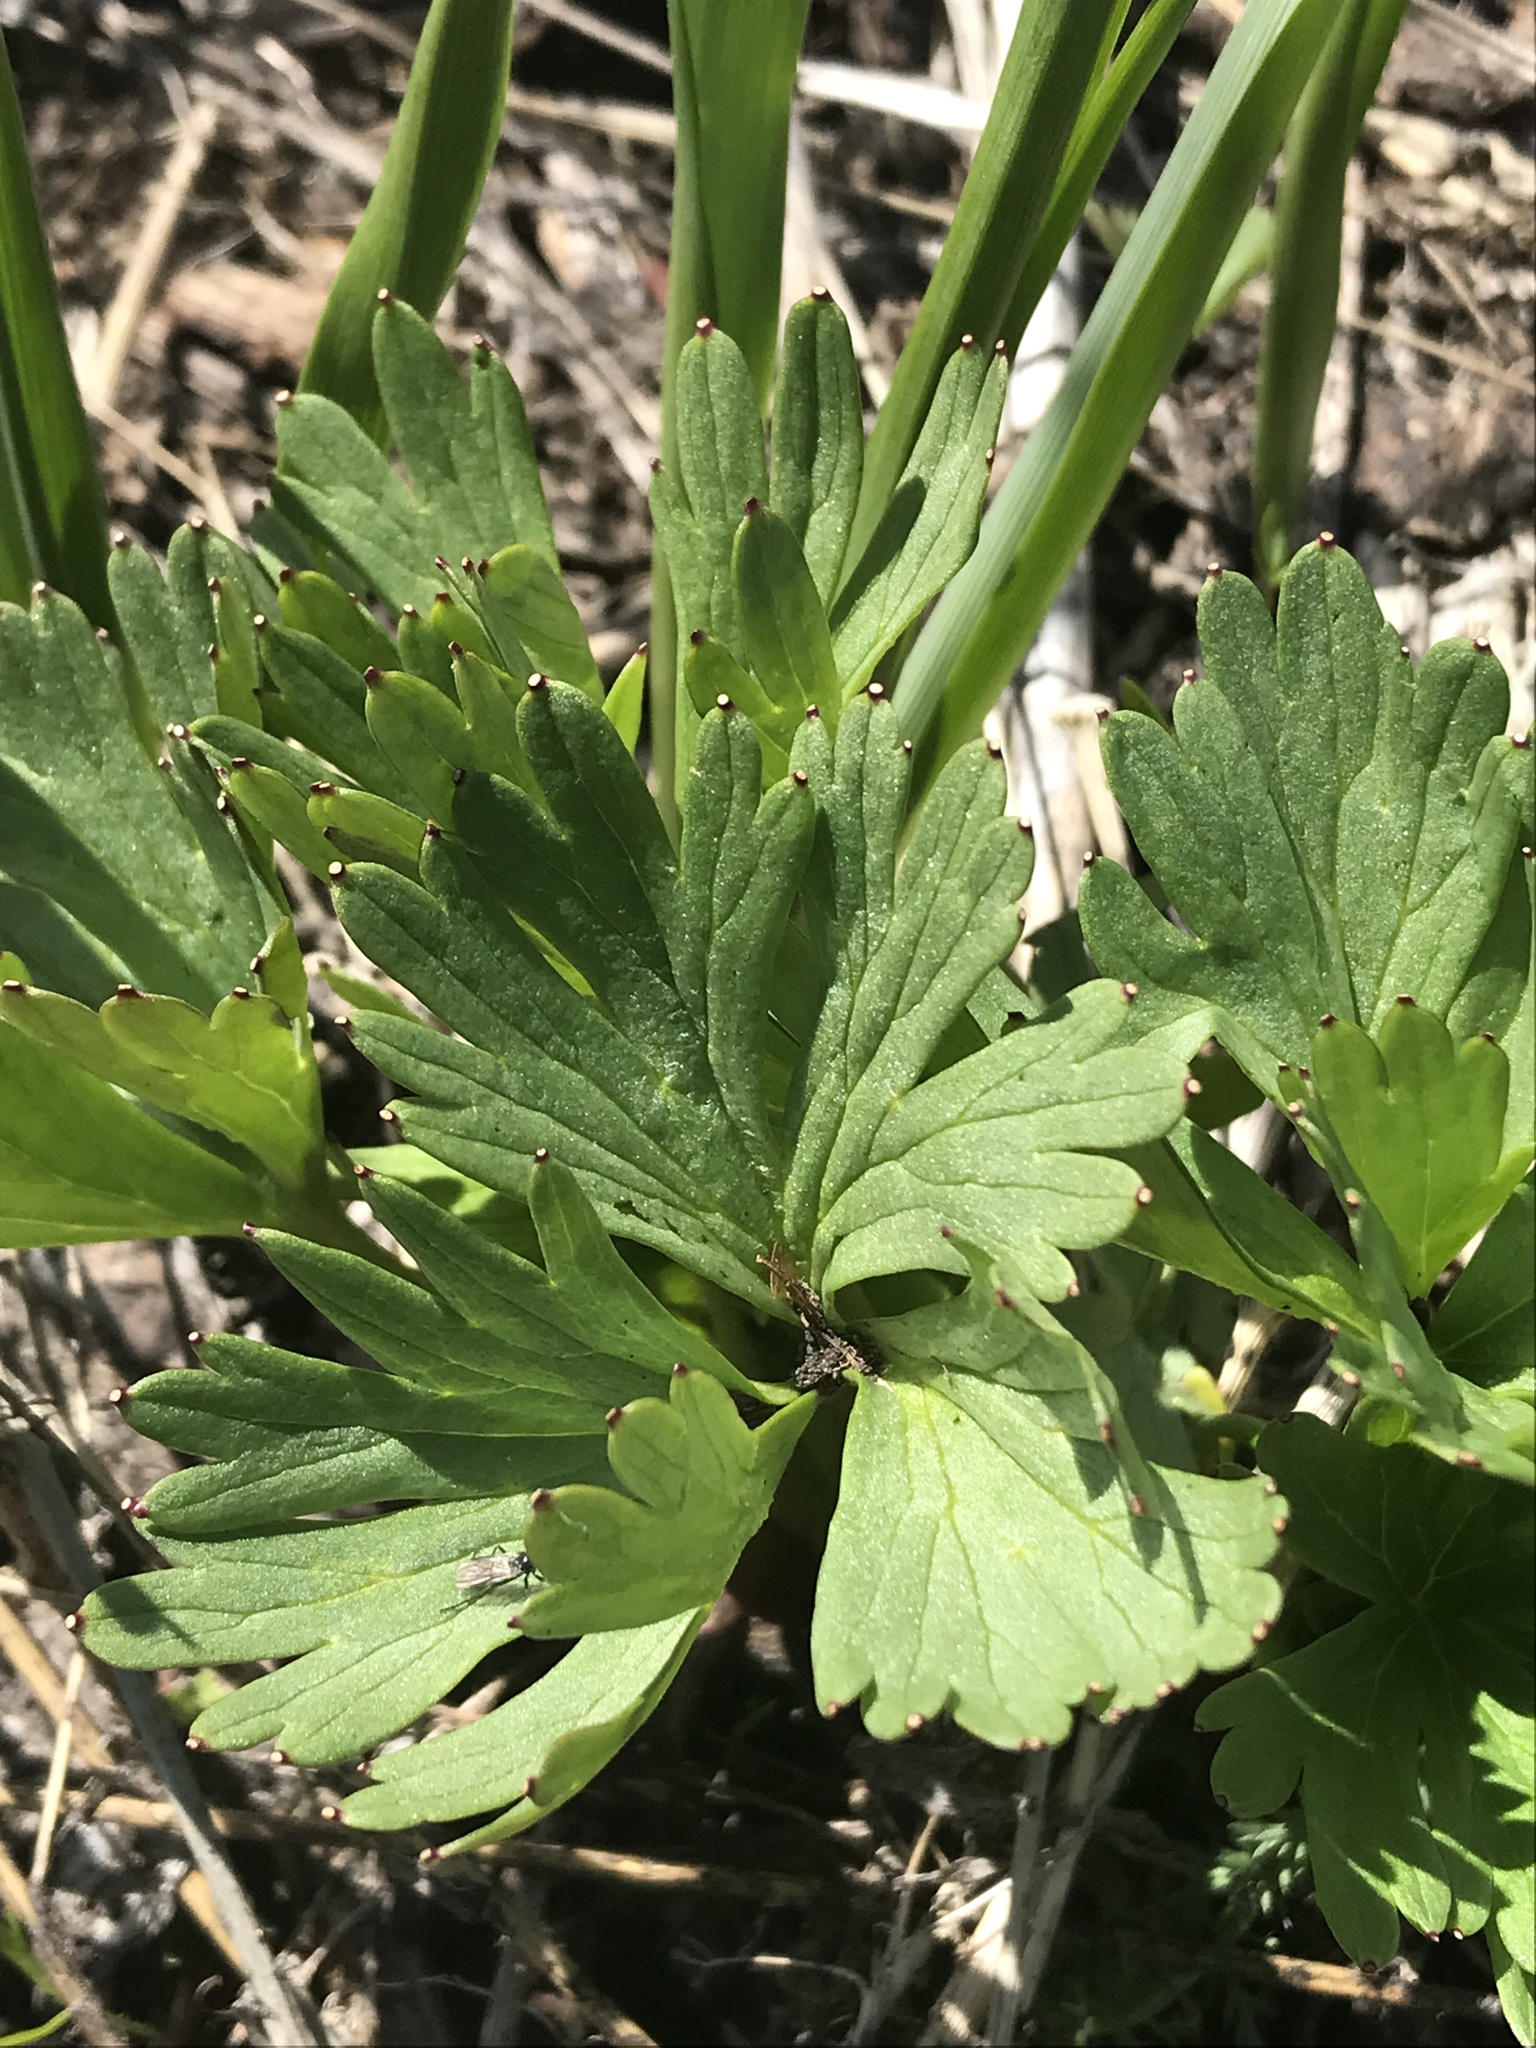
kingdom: Plantae
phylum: Tracheophyta
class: Magnoliopsida
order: Ranunculales
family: Ranunculaceae
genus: Delphinium
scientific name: Delphinium viridescens
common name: Wenatchee larkspur
